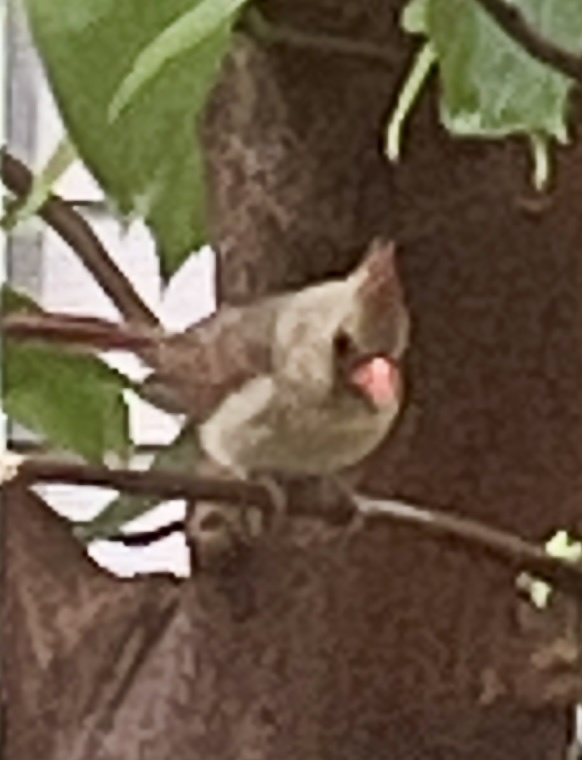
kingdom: Animalia
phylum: Chordata
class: Aves
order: Passeriformes
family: Cardinalidae
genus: Cardinalis
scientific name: Cardinalis cardinalis
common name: Northern cardinal
